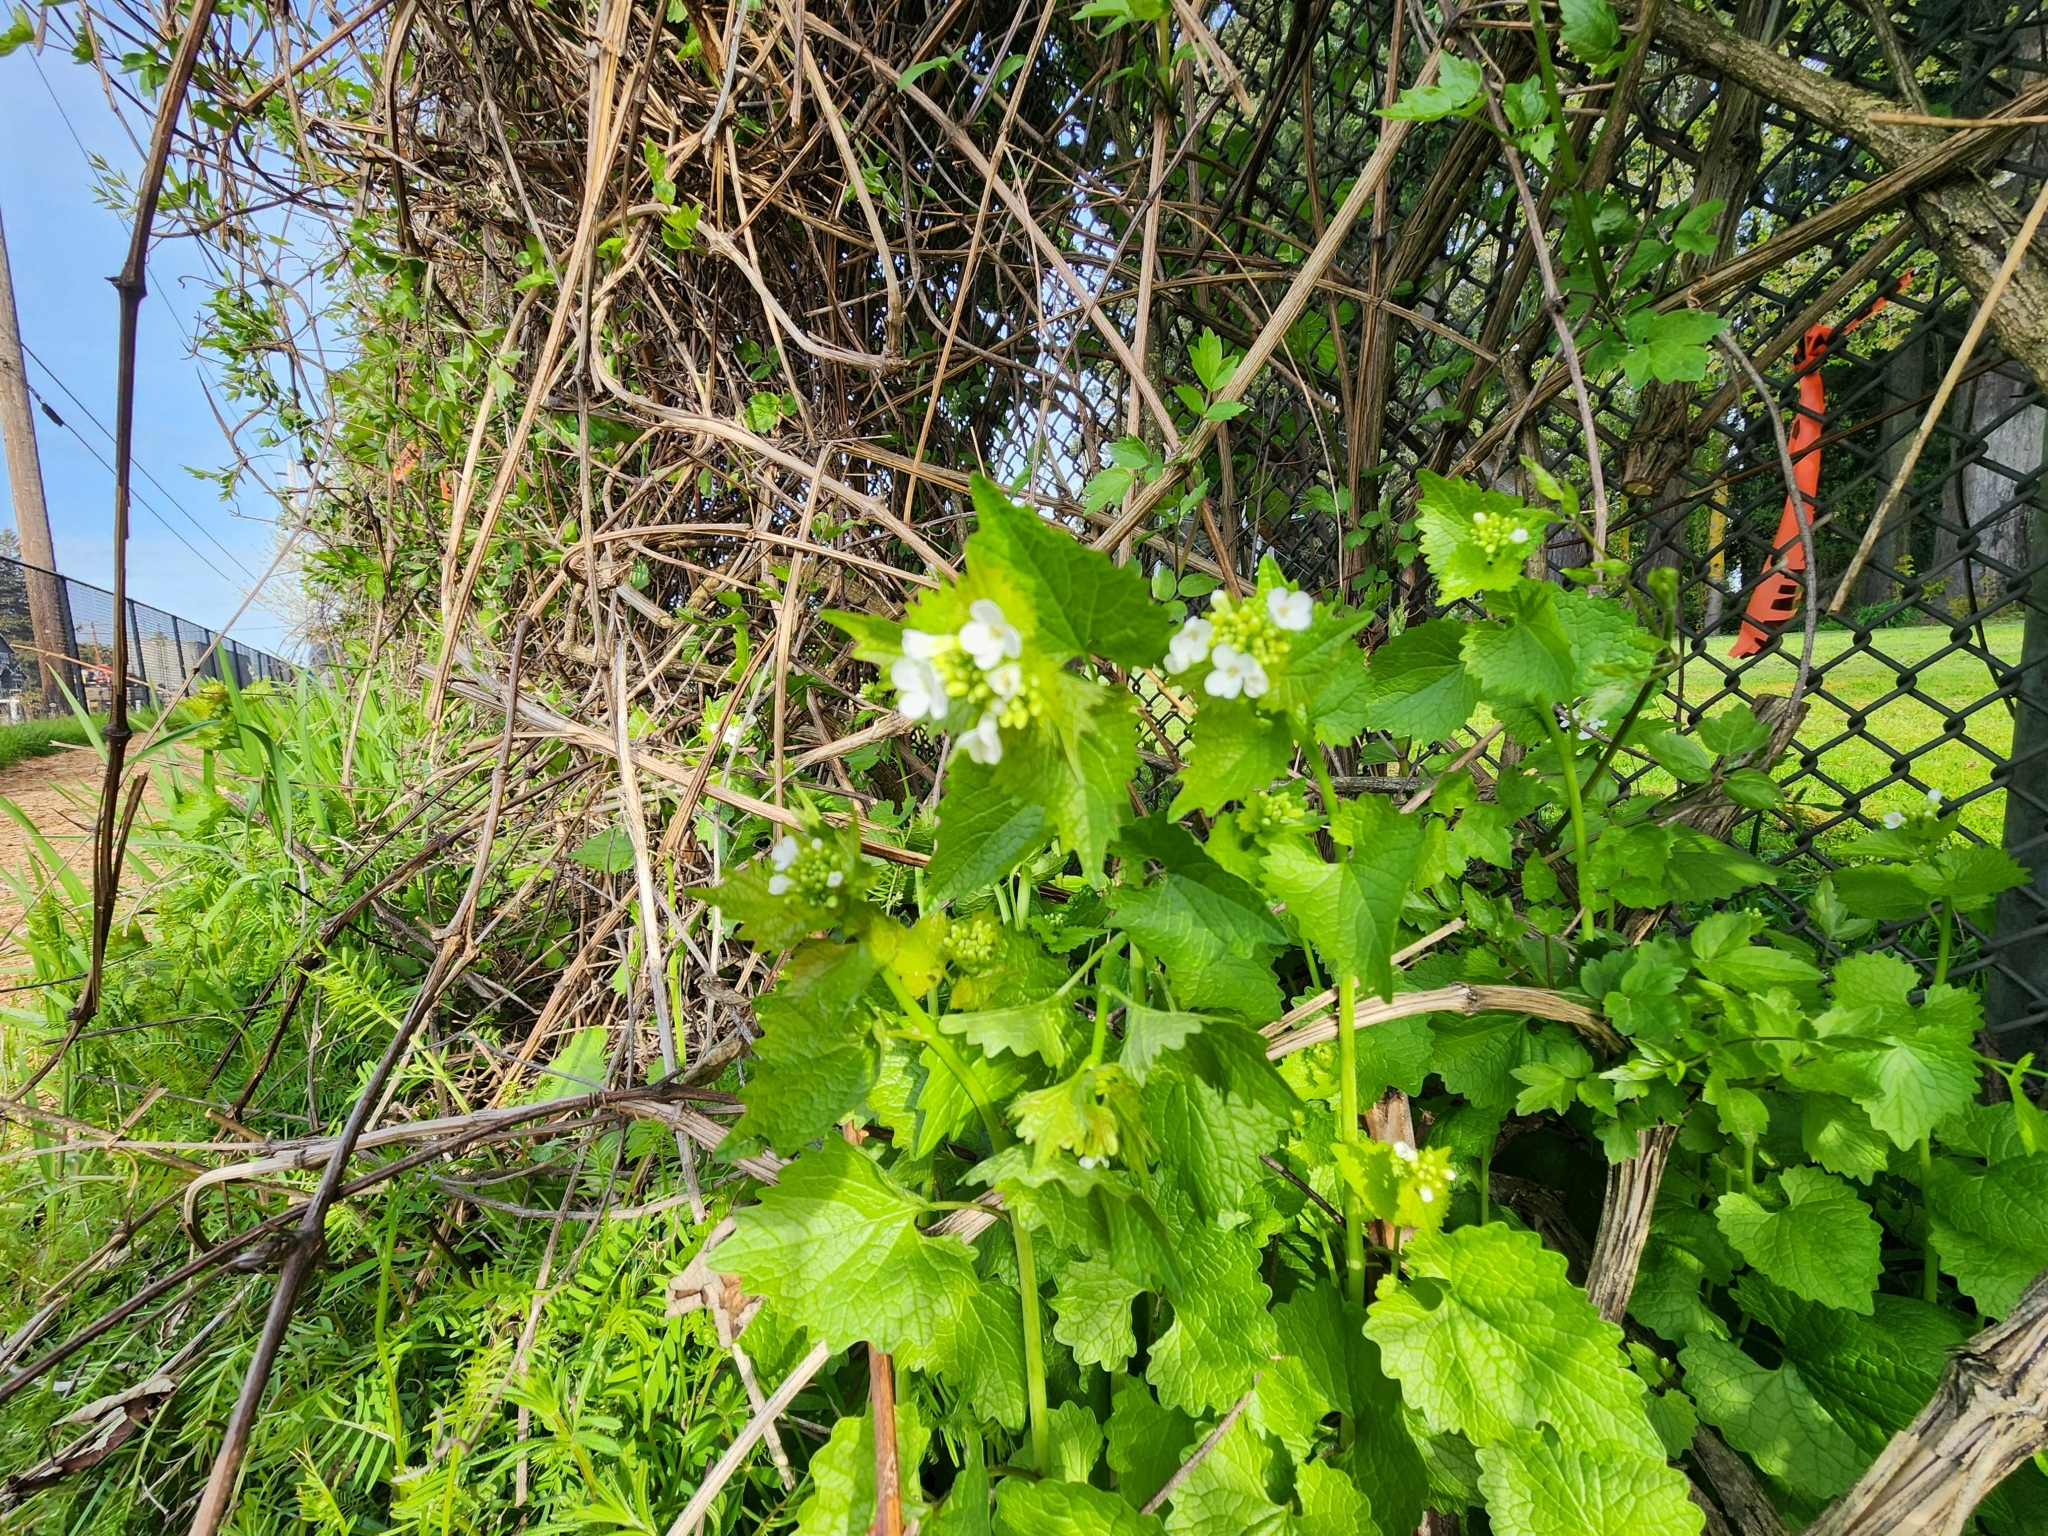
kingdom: Plantae
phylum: Tracheophyta
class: Magnoliopsida
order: Brassicales
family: Brassicaceae
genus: Alliaria
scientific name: Alliaria petiolata
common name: Garlic mustard
